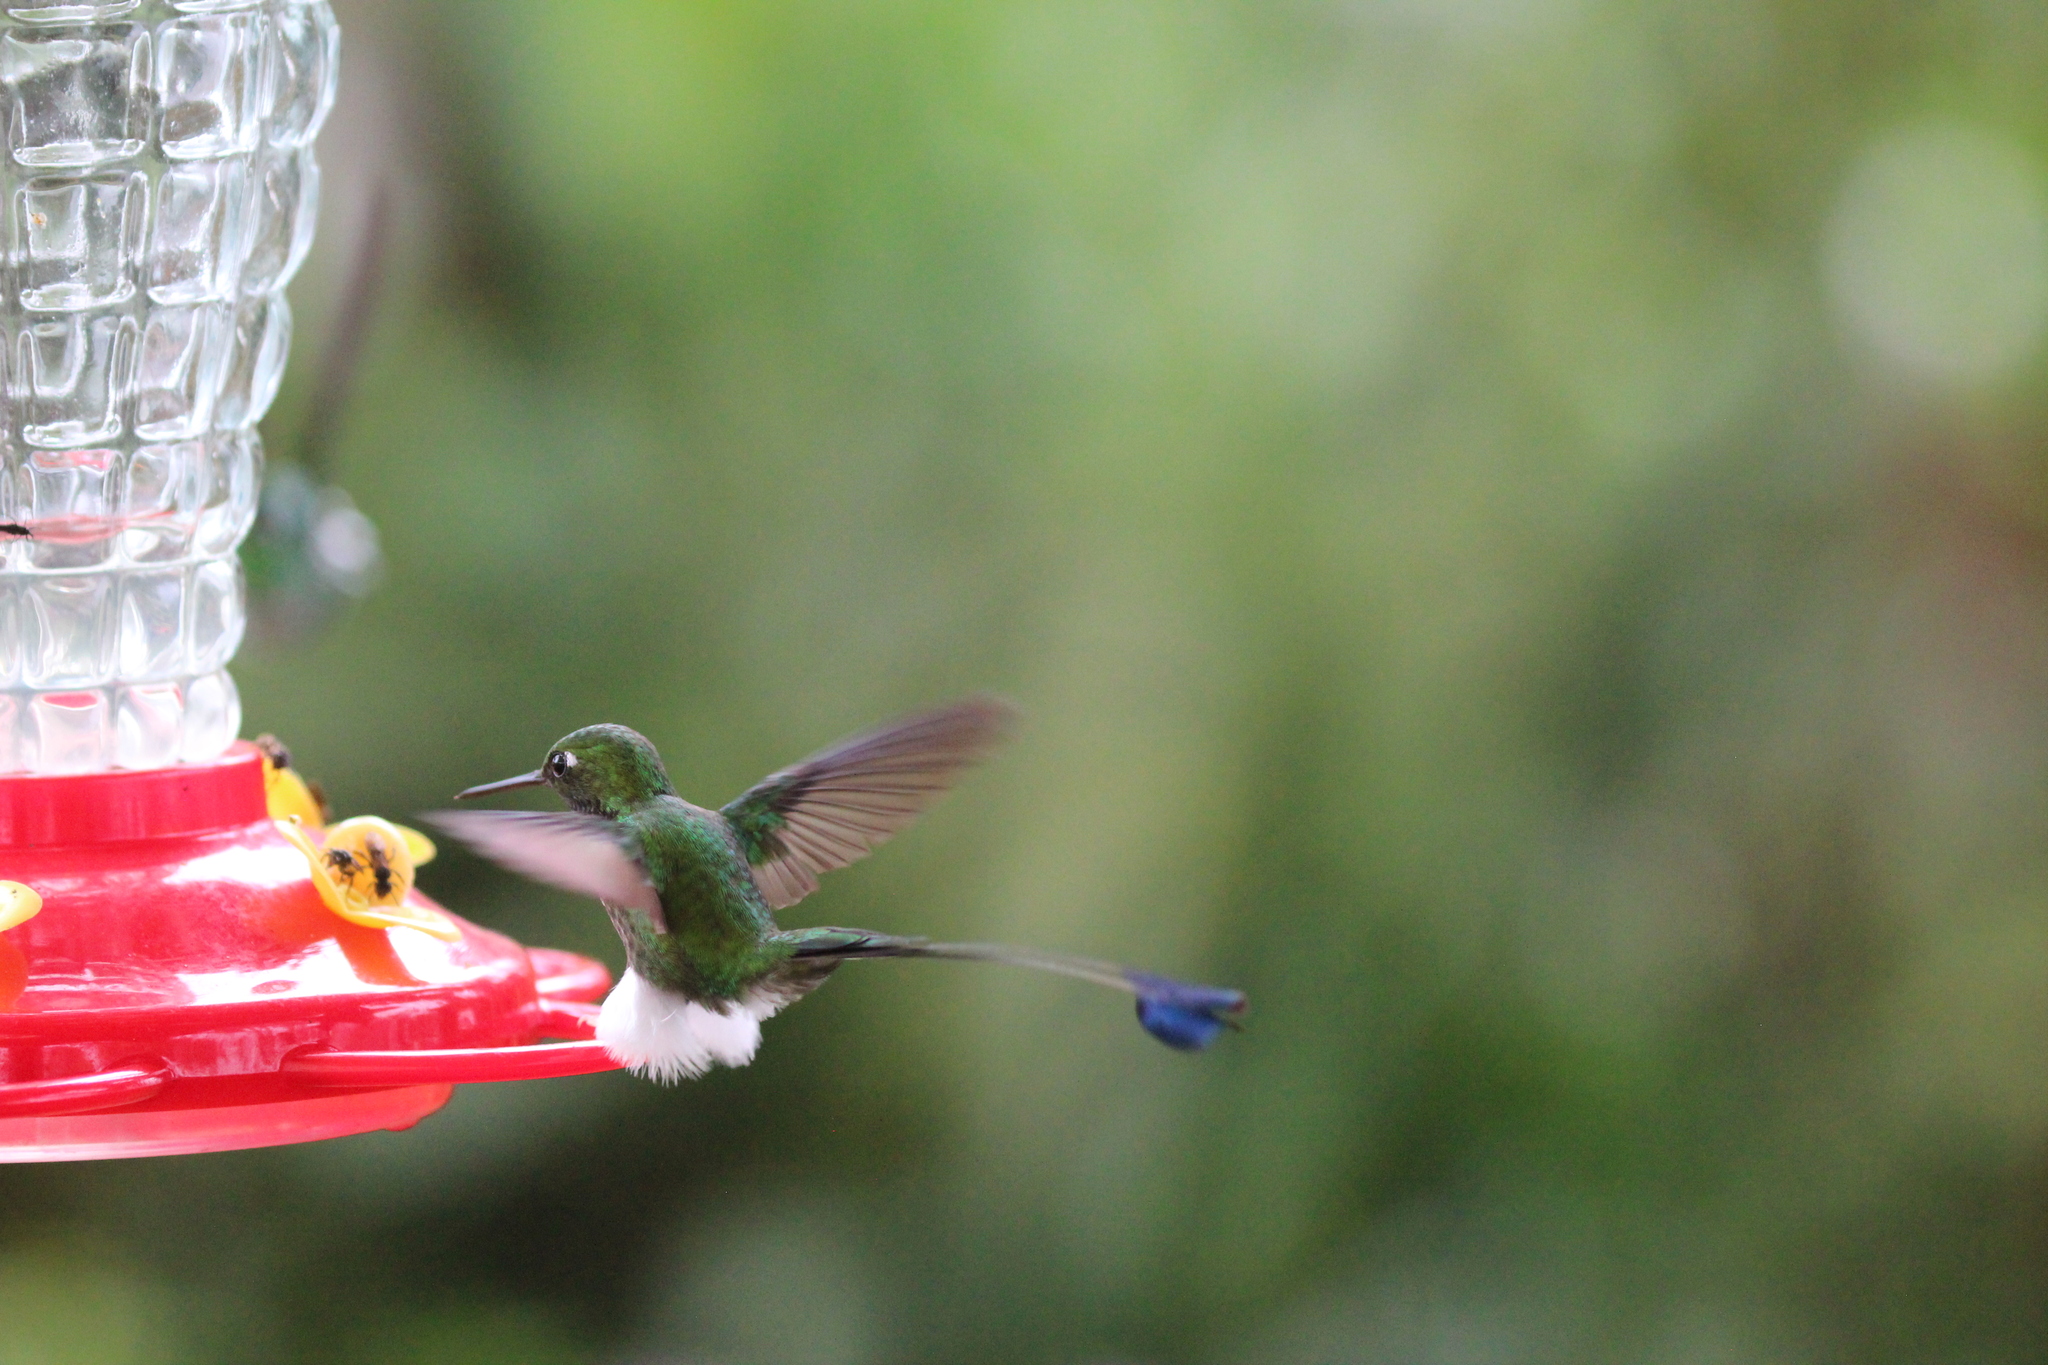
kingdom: Animalia
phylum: Chordata
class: Aves
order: Apodiformes
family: Trochilidae
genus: Ocreatus
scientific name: Ocreatus underwoodii
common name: Booted racket-tail
